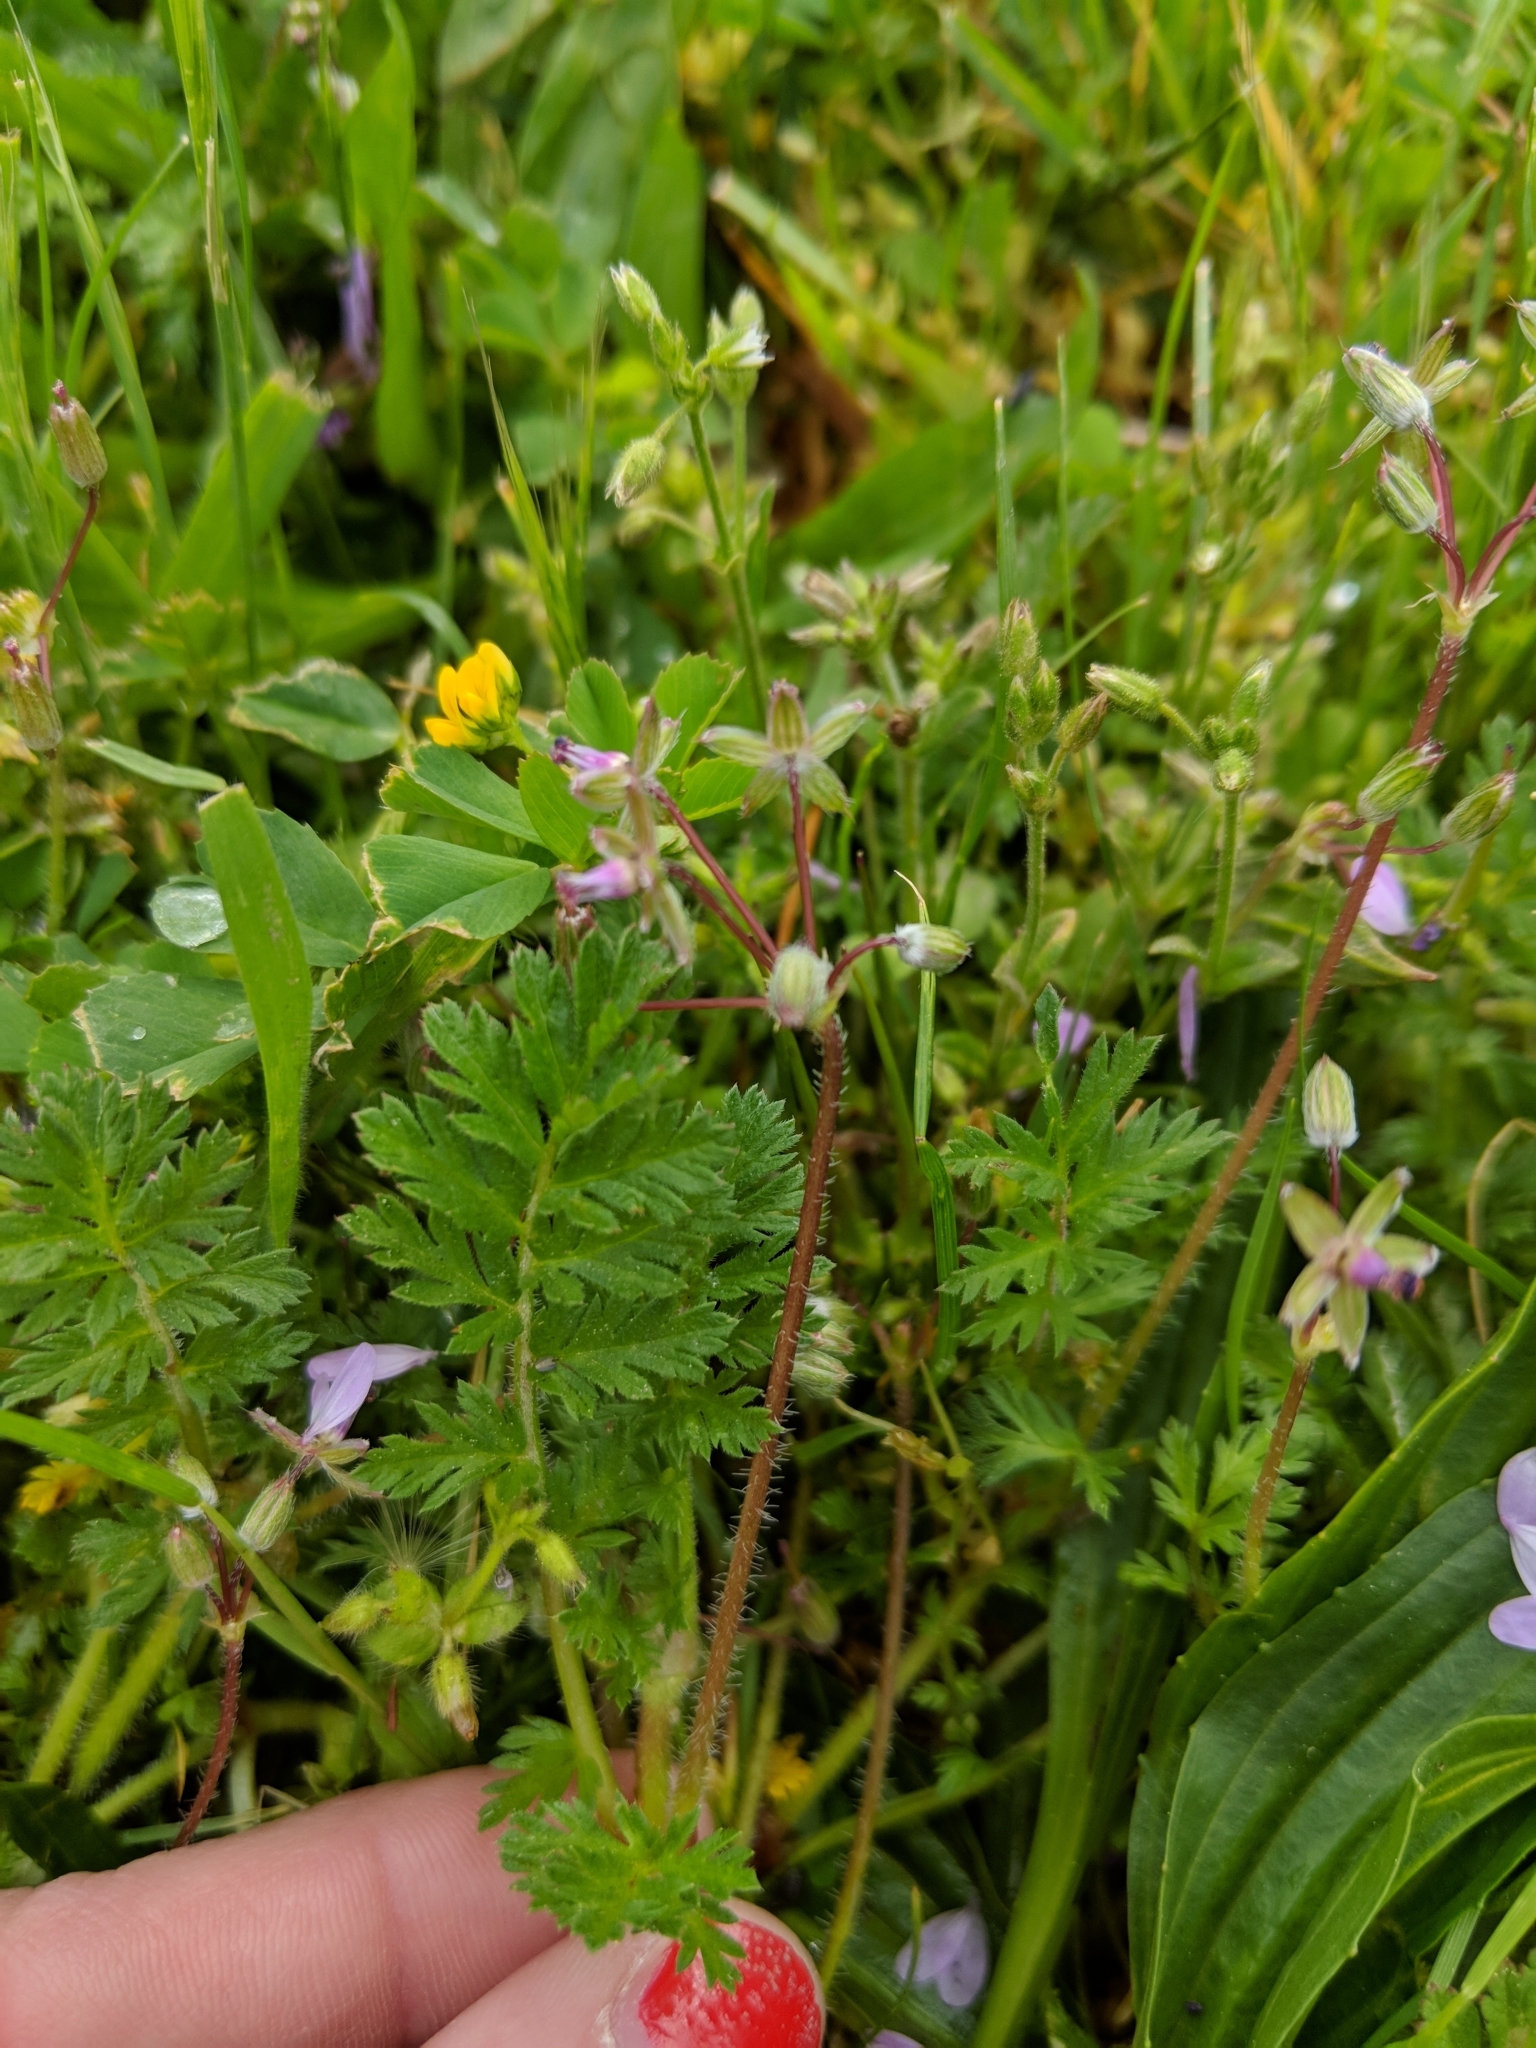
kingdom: Plantae
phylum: Tracheophyta
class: Magnoliopsida
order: Geraniales
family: Geraniaceae
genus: Erodium
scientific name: Erodium cicutarium
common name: Common stork's-bill
